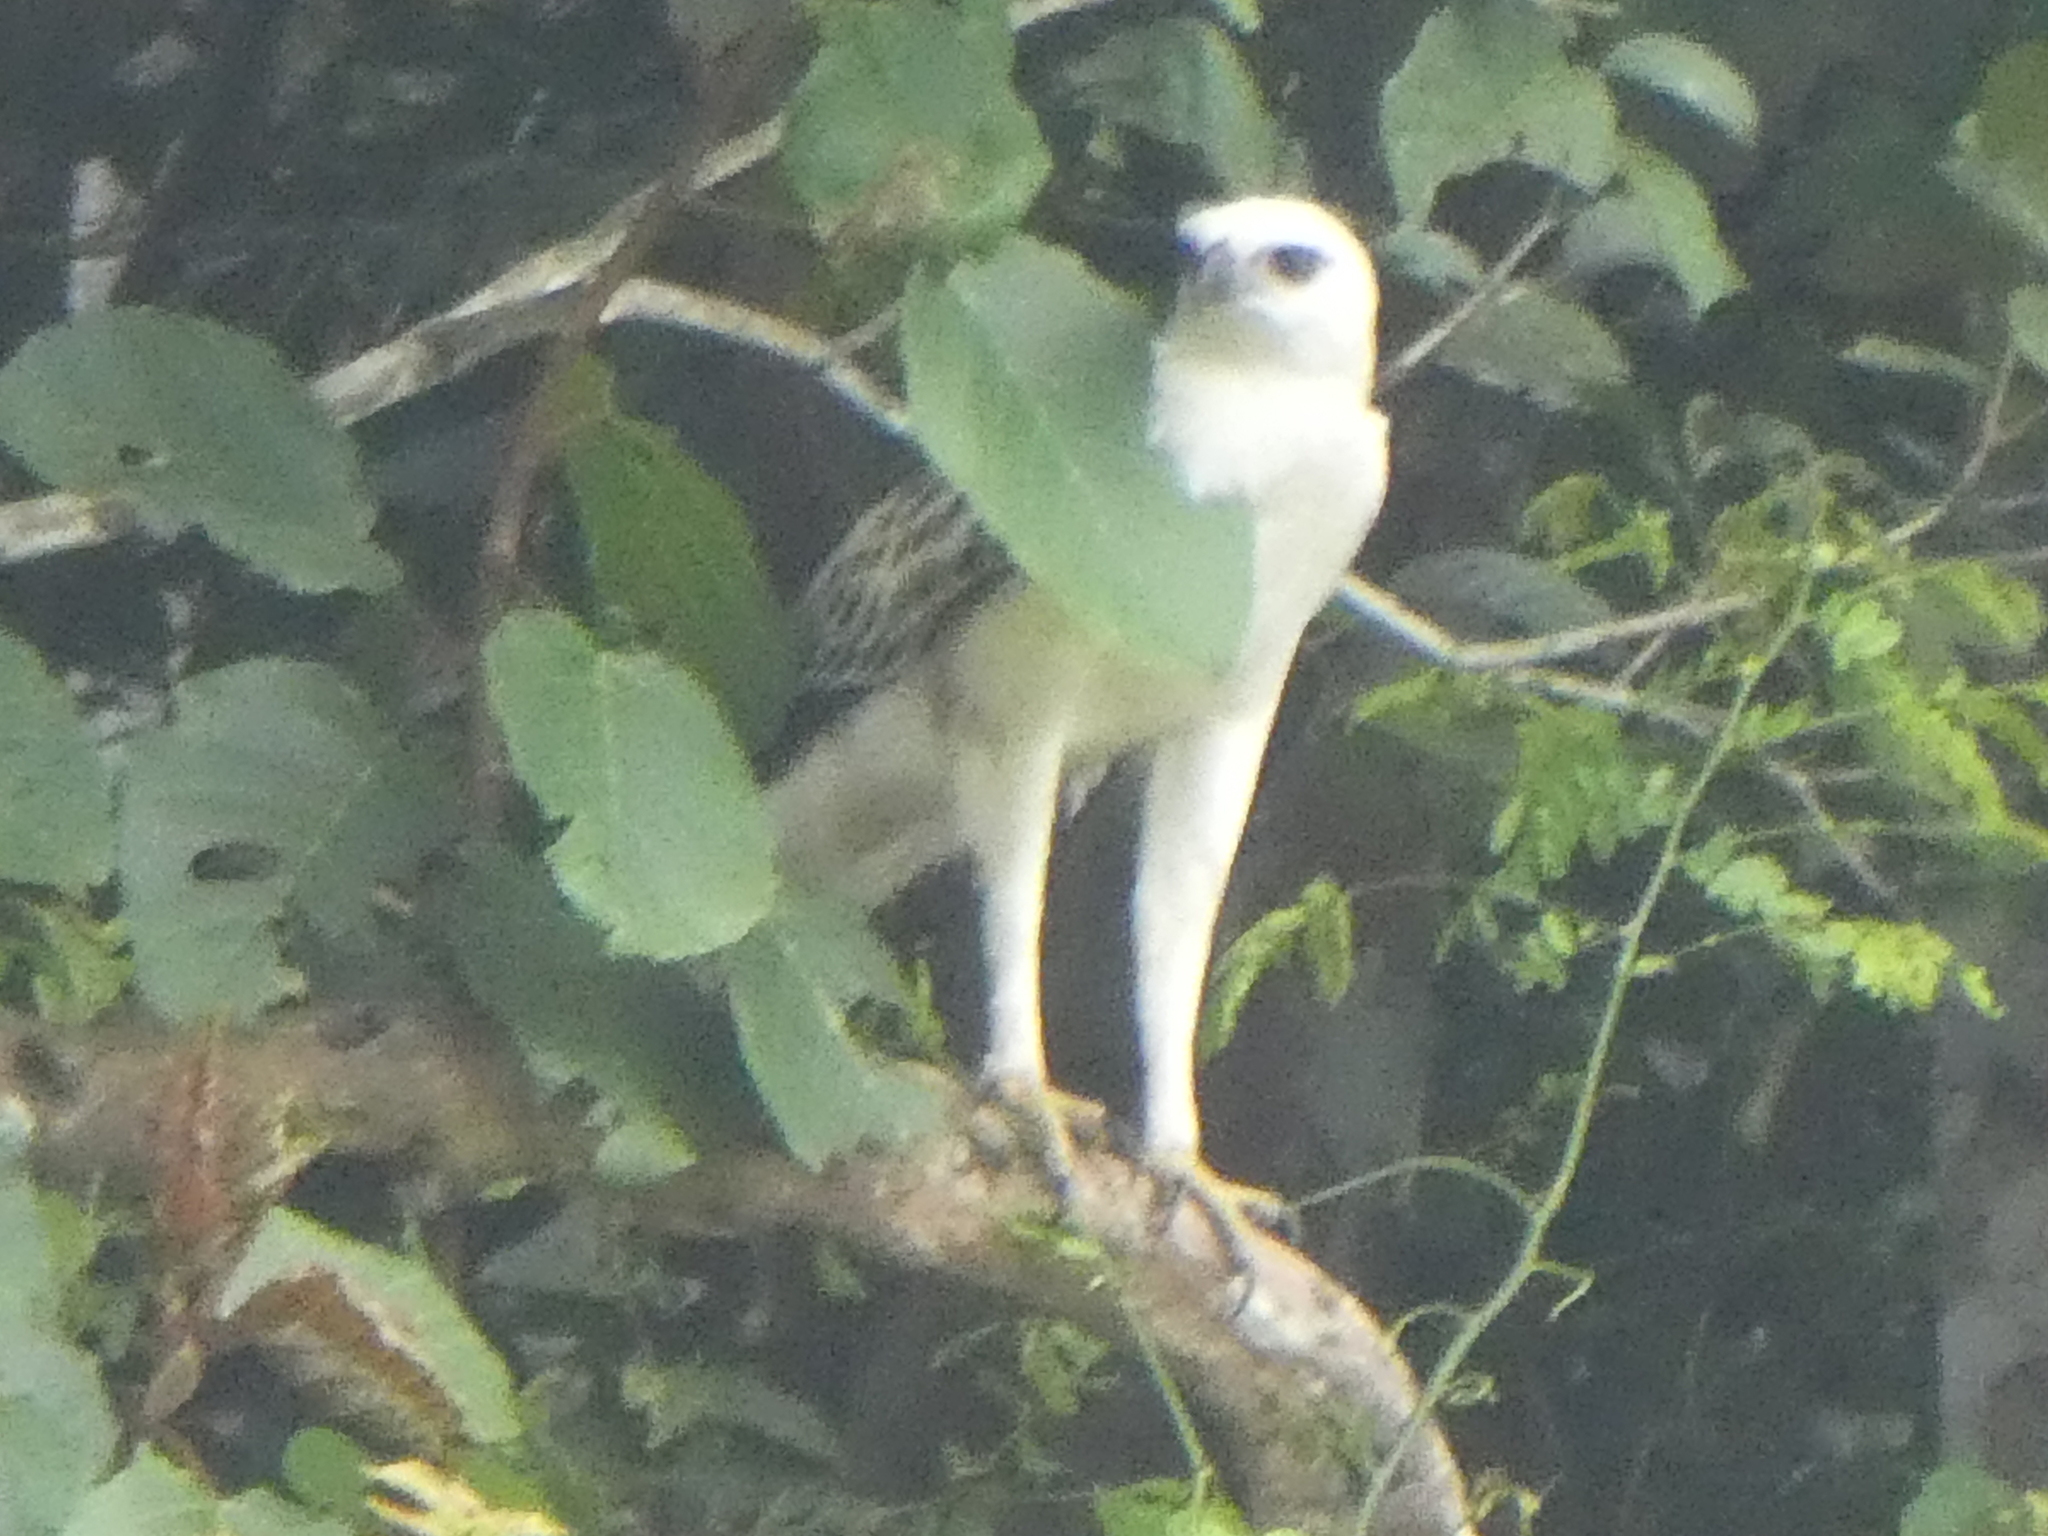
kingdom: Animalia
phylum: Chordata
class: Aves
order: Accipitriformes
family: Accipitridae
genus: Nisaetus
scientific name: Nisaetus cirrhatus
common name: Changeable hawk-eagle
